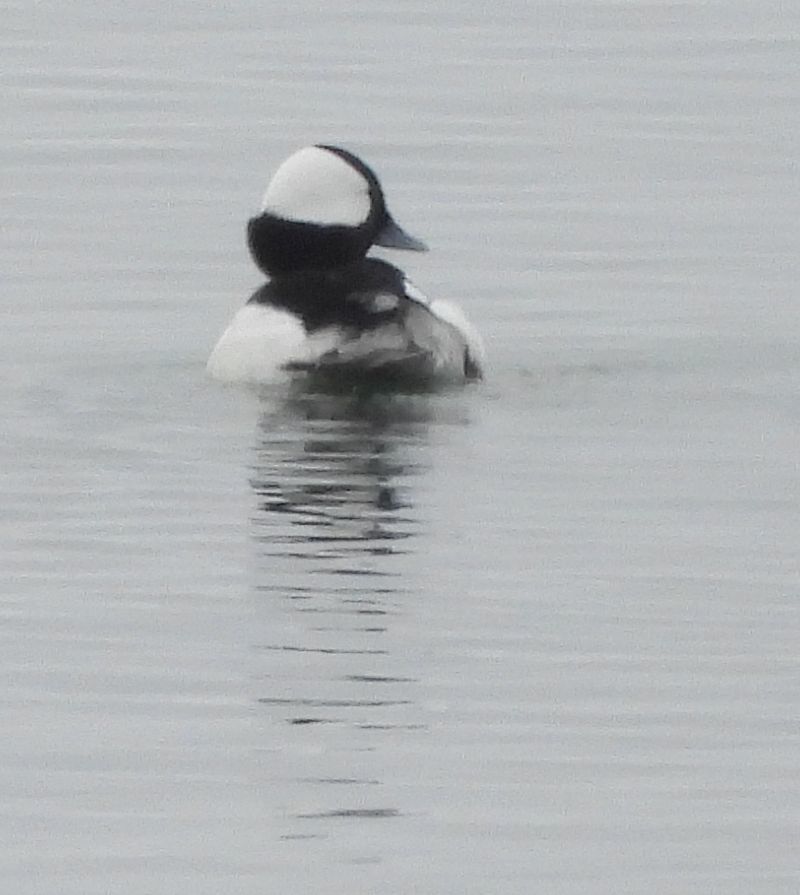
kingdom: Animalia
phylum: Chordata
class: Aves
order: Anseriformes
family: Anatidae
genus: Bucephala
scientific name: Bucephala albeola
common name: Bufflehead
